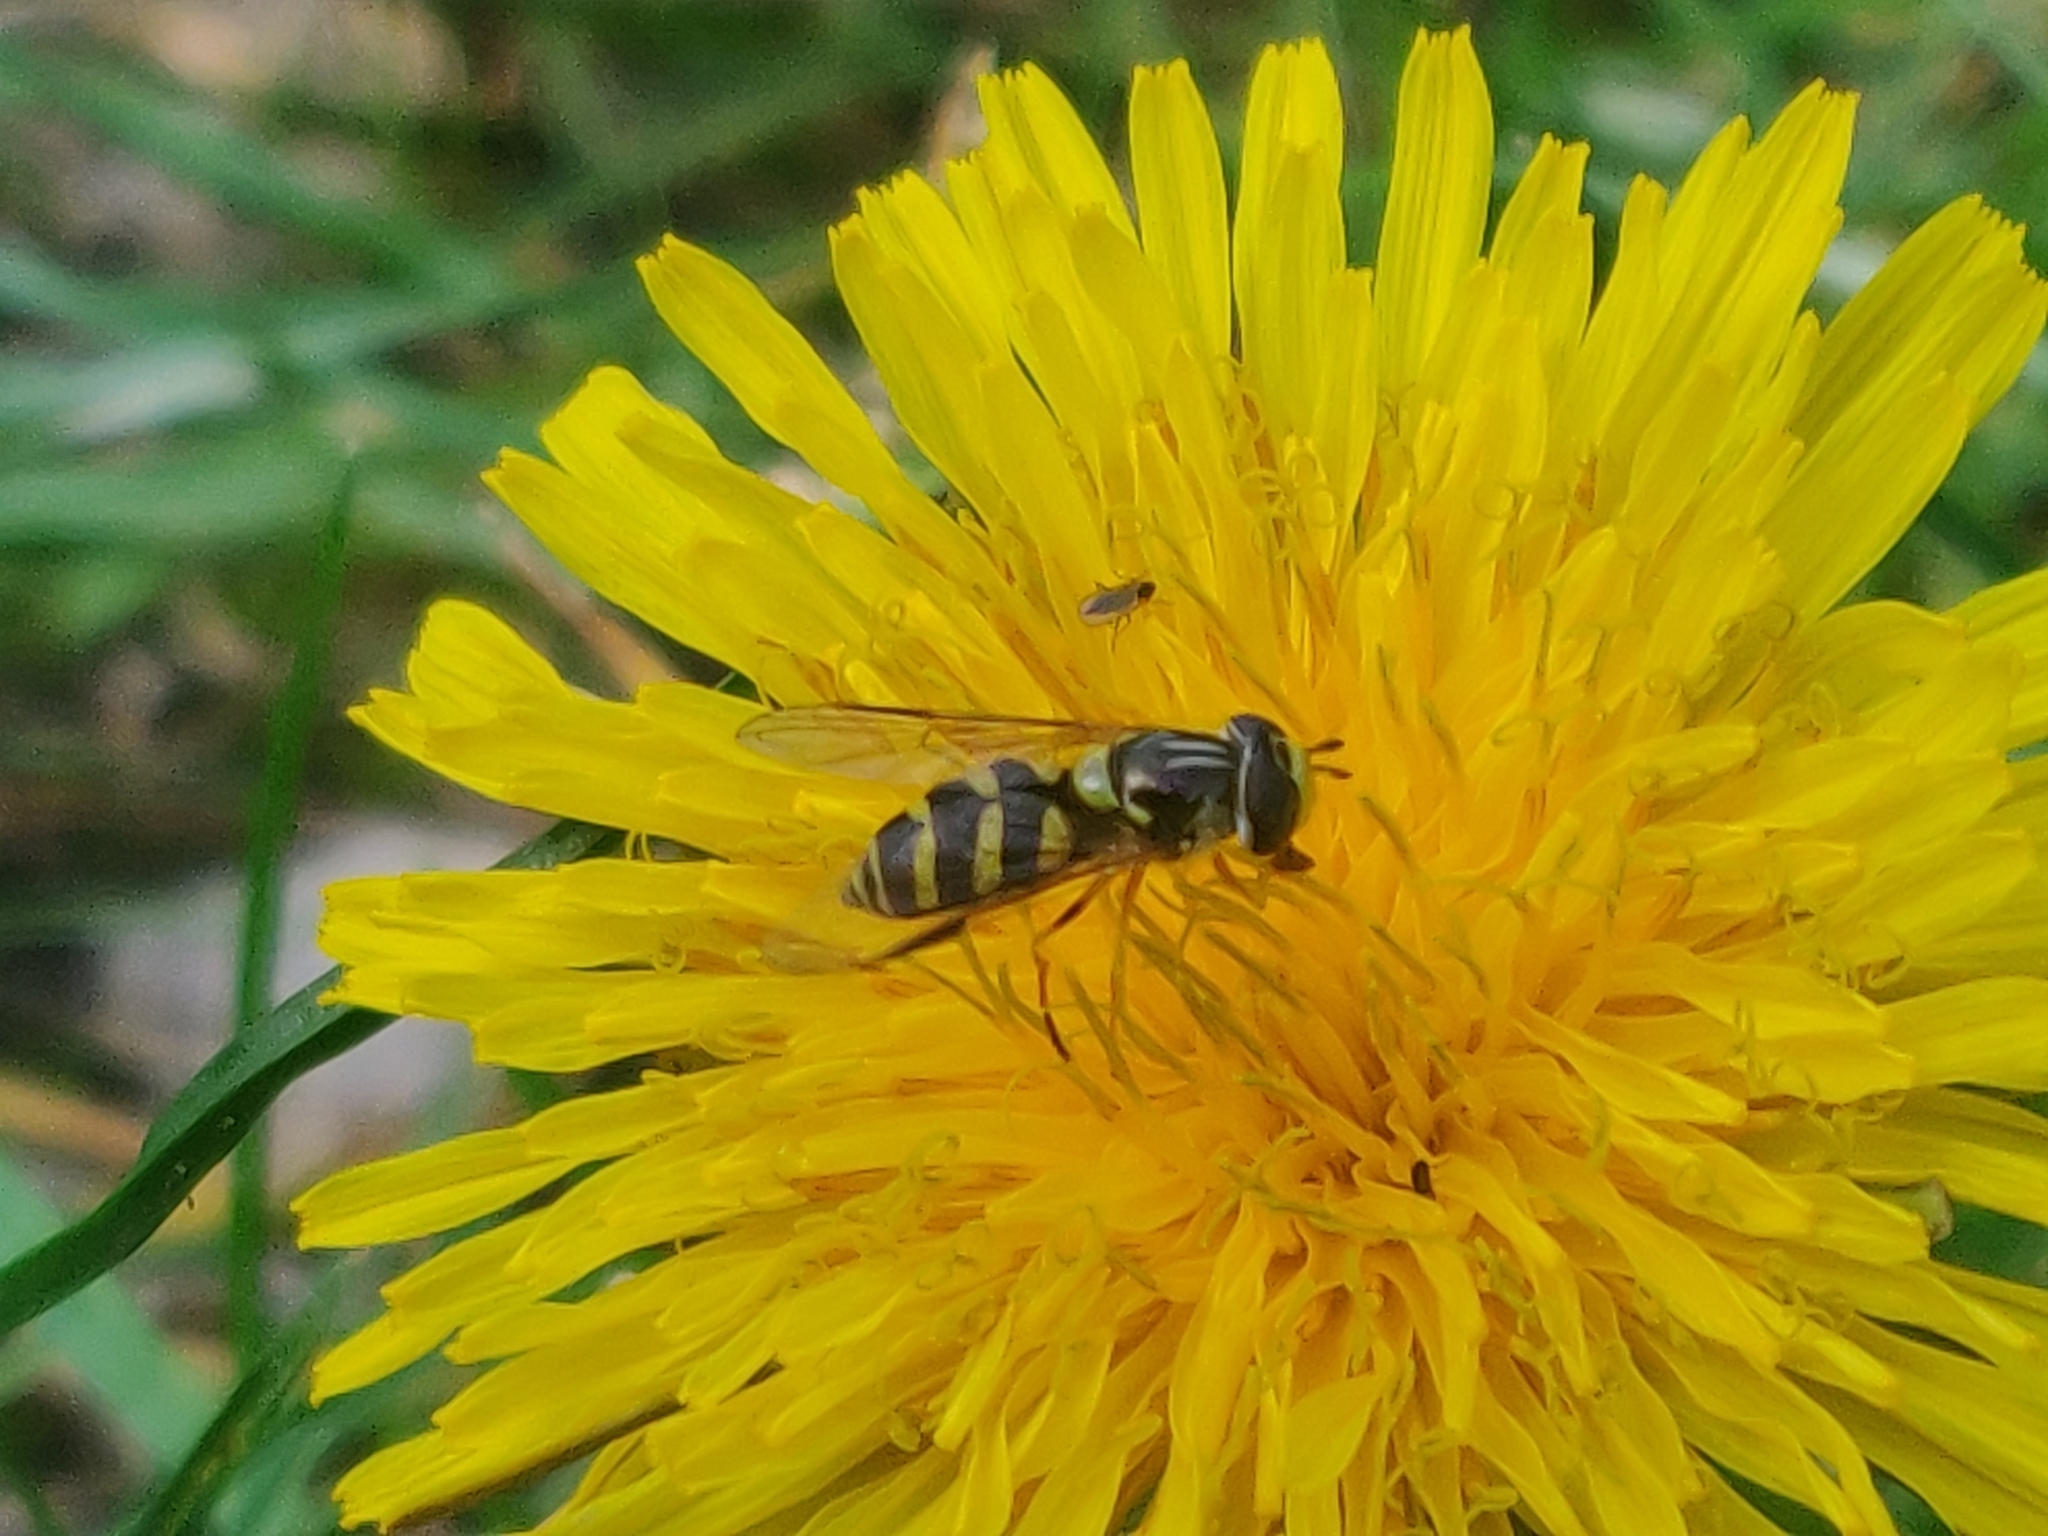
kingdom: Animalia
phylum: Arthropoda
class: Insecta
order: Diptera
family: Syrphidae
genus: Dasysyrphus
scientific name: Dasysyrphus albostriatus
